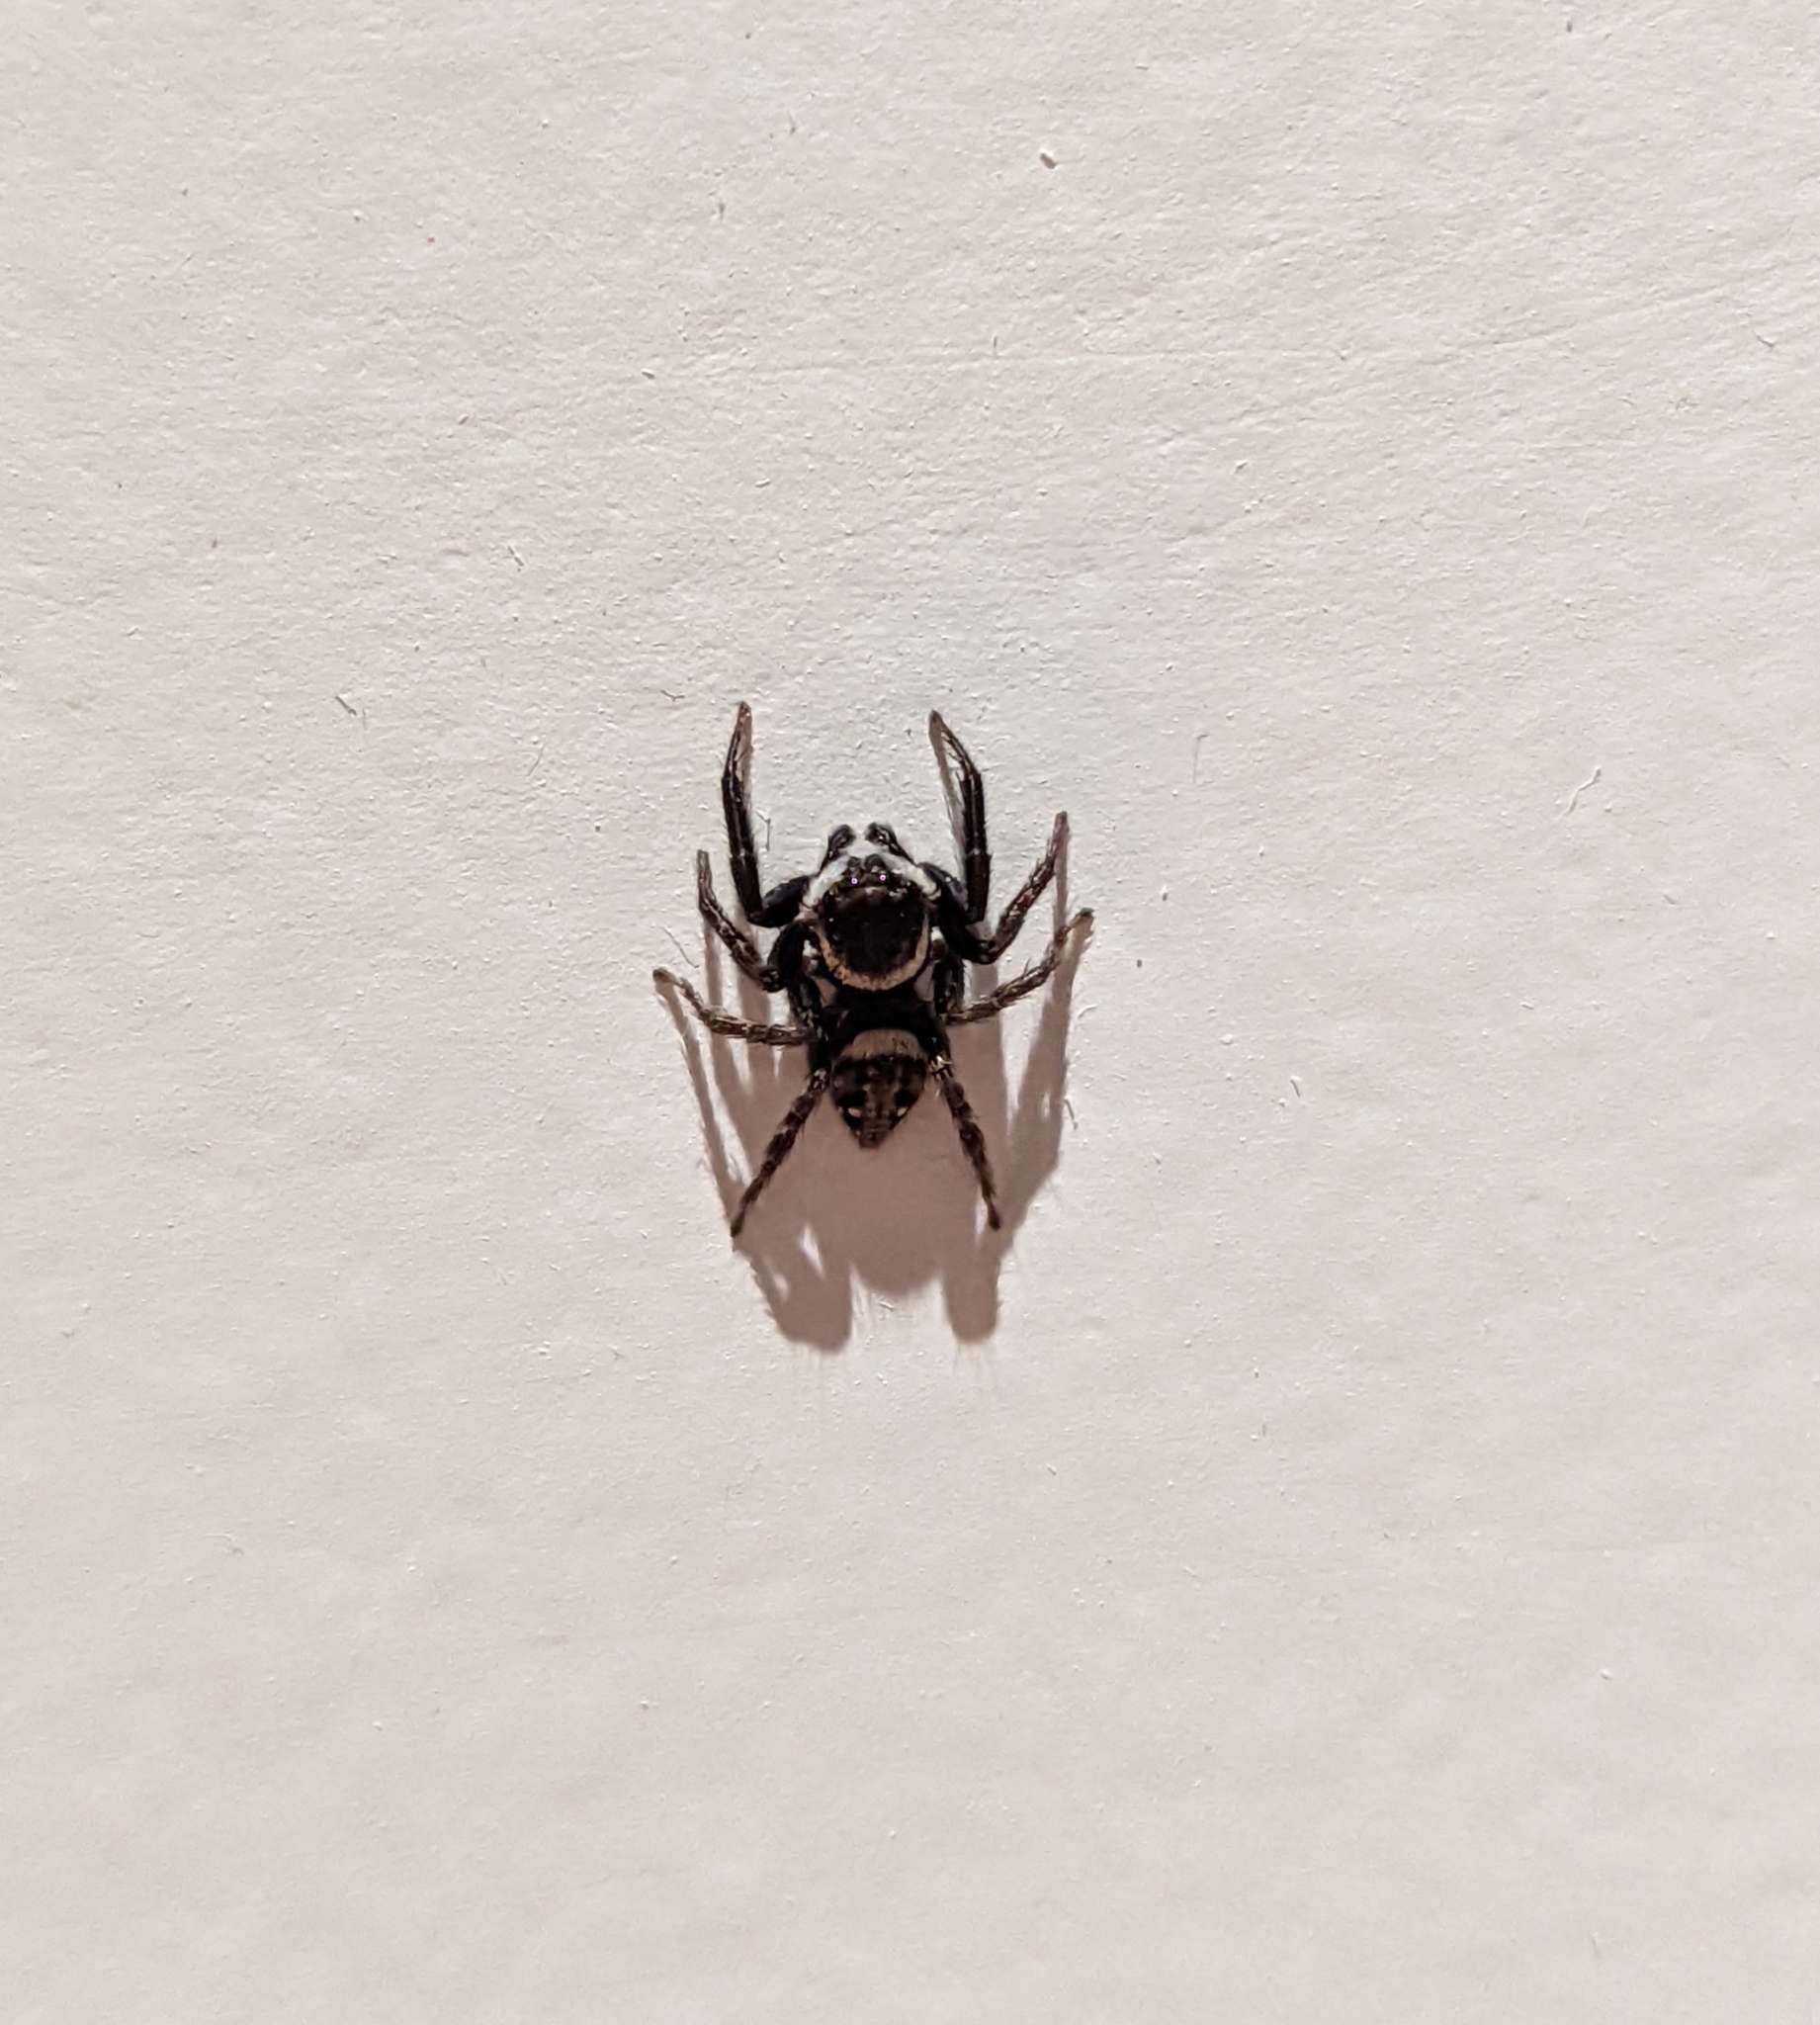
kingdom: Animalia
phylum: Arthropoda
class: Arachnida
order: Araneae
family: Salticidae
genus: Hasarius
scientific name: Hasarius adansoni
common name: Jumping spider
